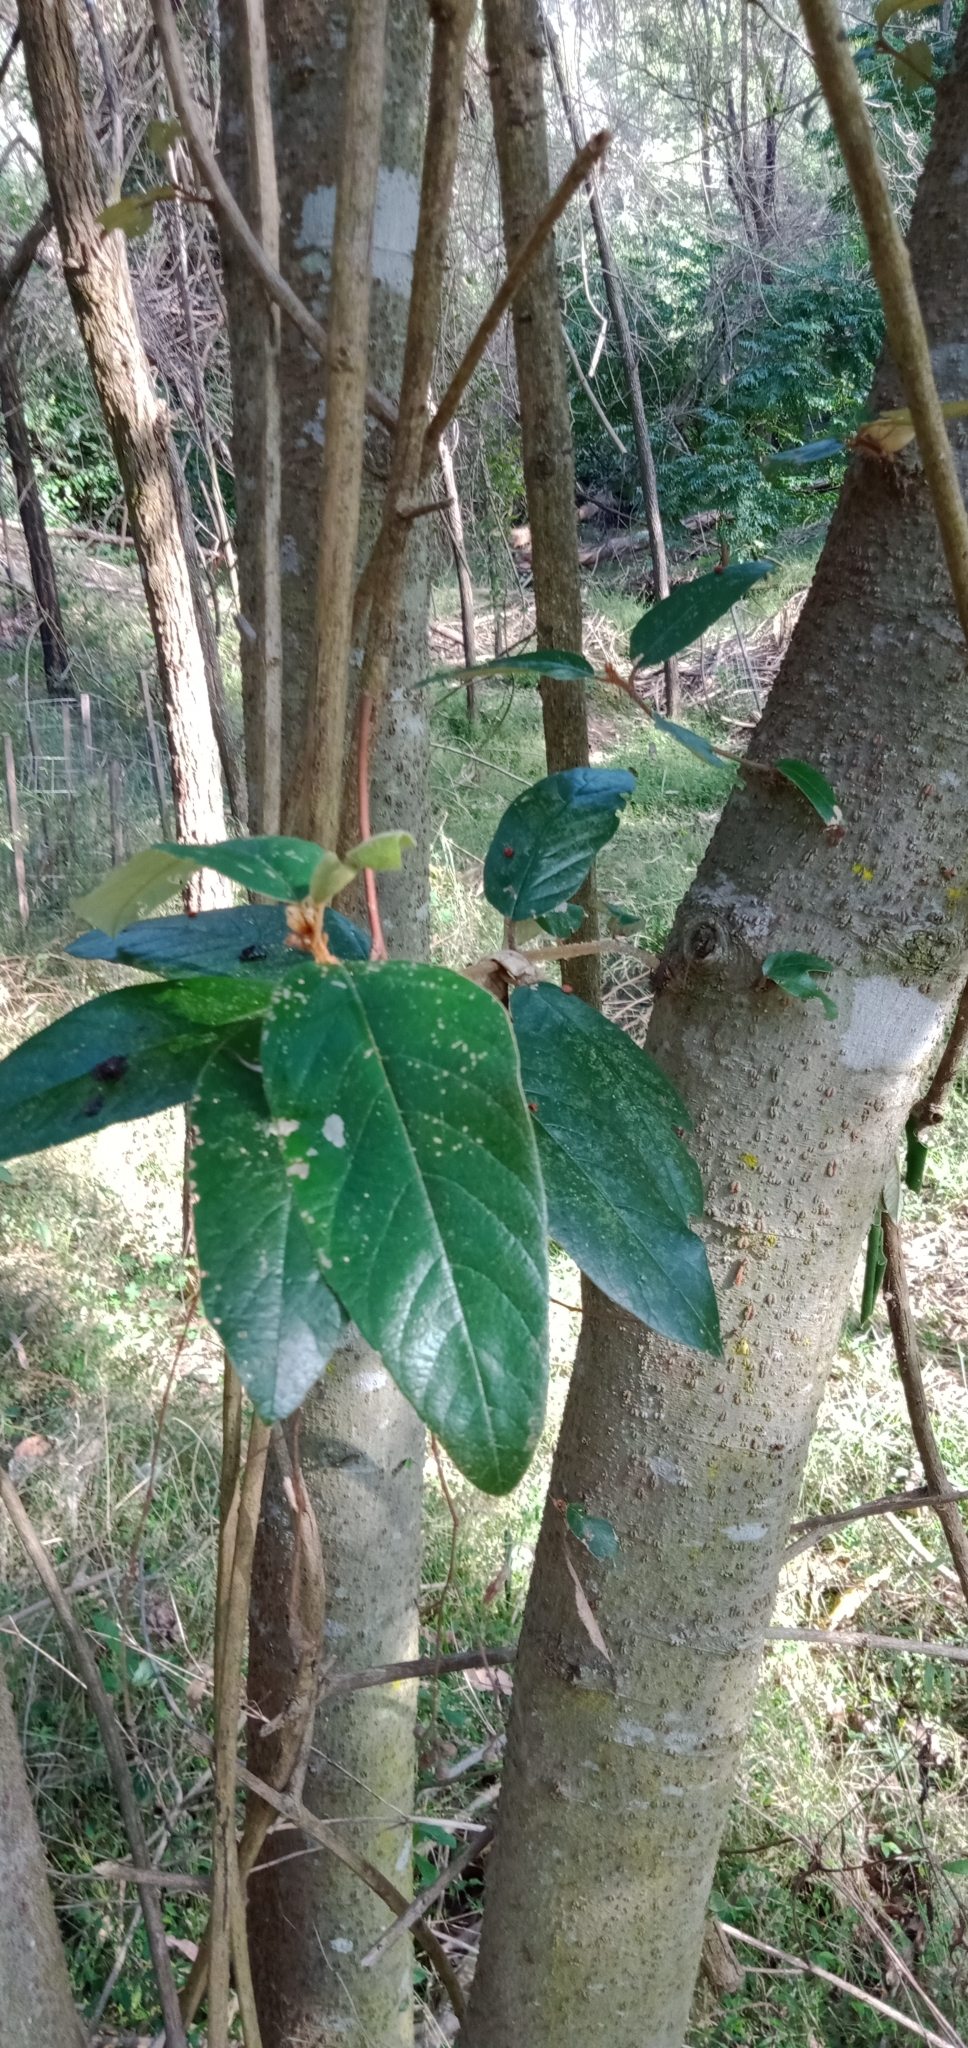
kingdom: Plantae
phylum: Tracheophyta
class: Magnoliopsida
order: Rosales
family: Rhamnaceae
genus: Alphitonia
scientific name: Alphitonia excelsa
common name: Red ash
